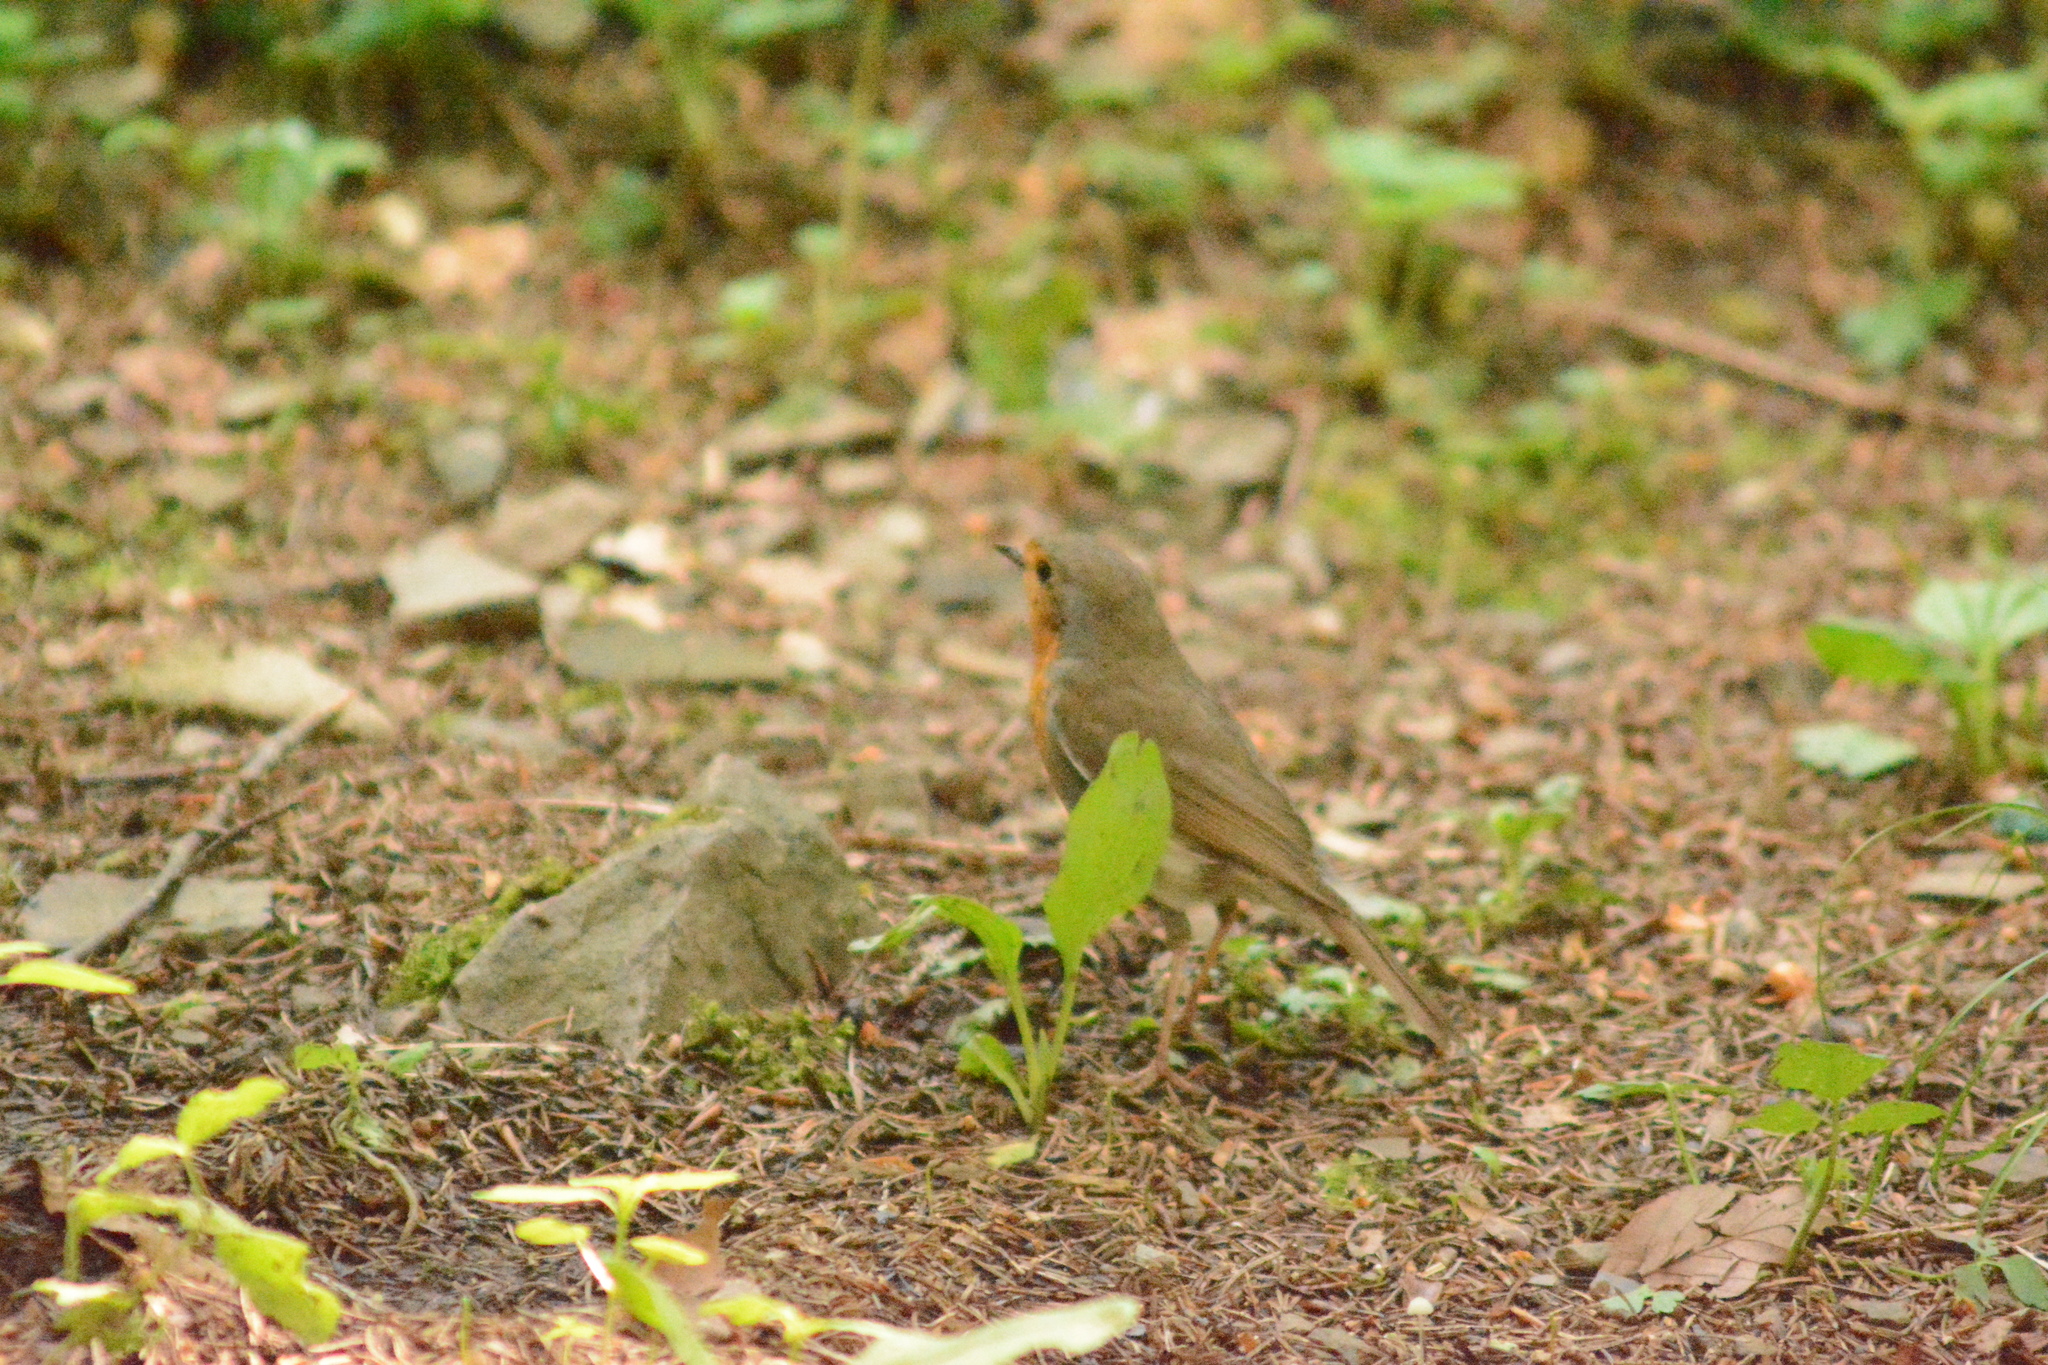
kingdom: Animalia
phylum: Chordata
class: Aves
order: Passeriformes
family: Muscicapidae
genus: Erithacus
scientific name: Erithacus rubecula
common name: European robin
